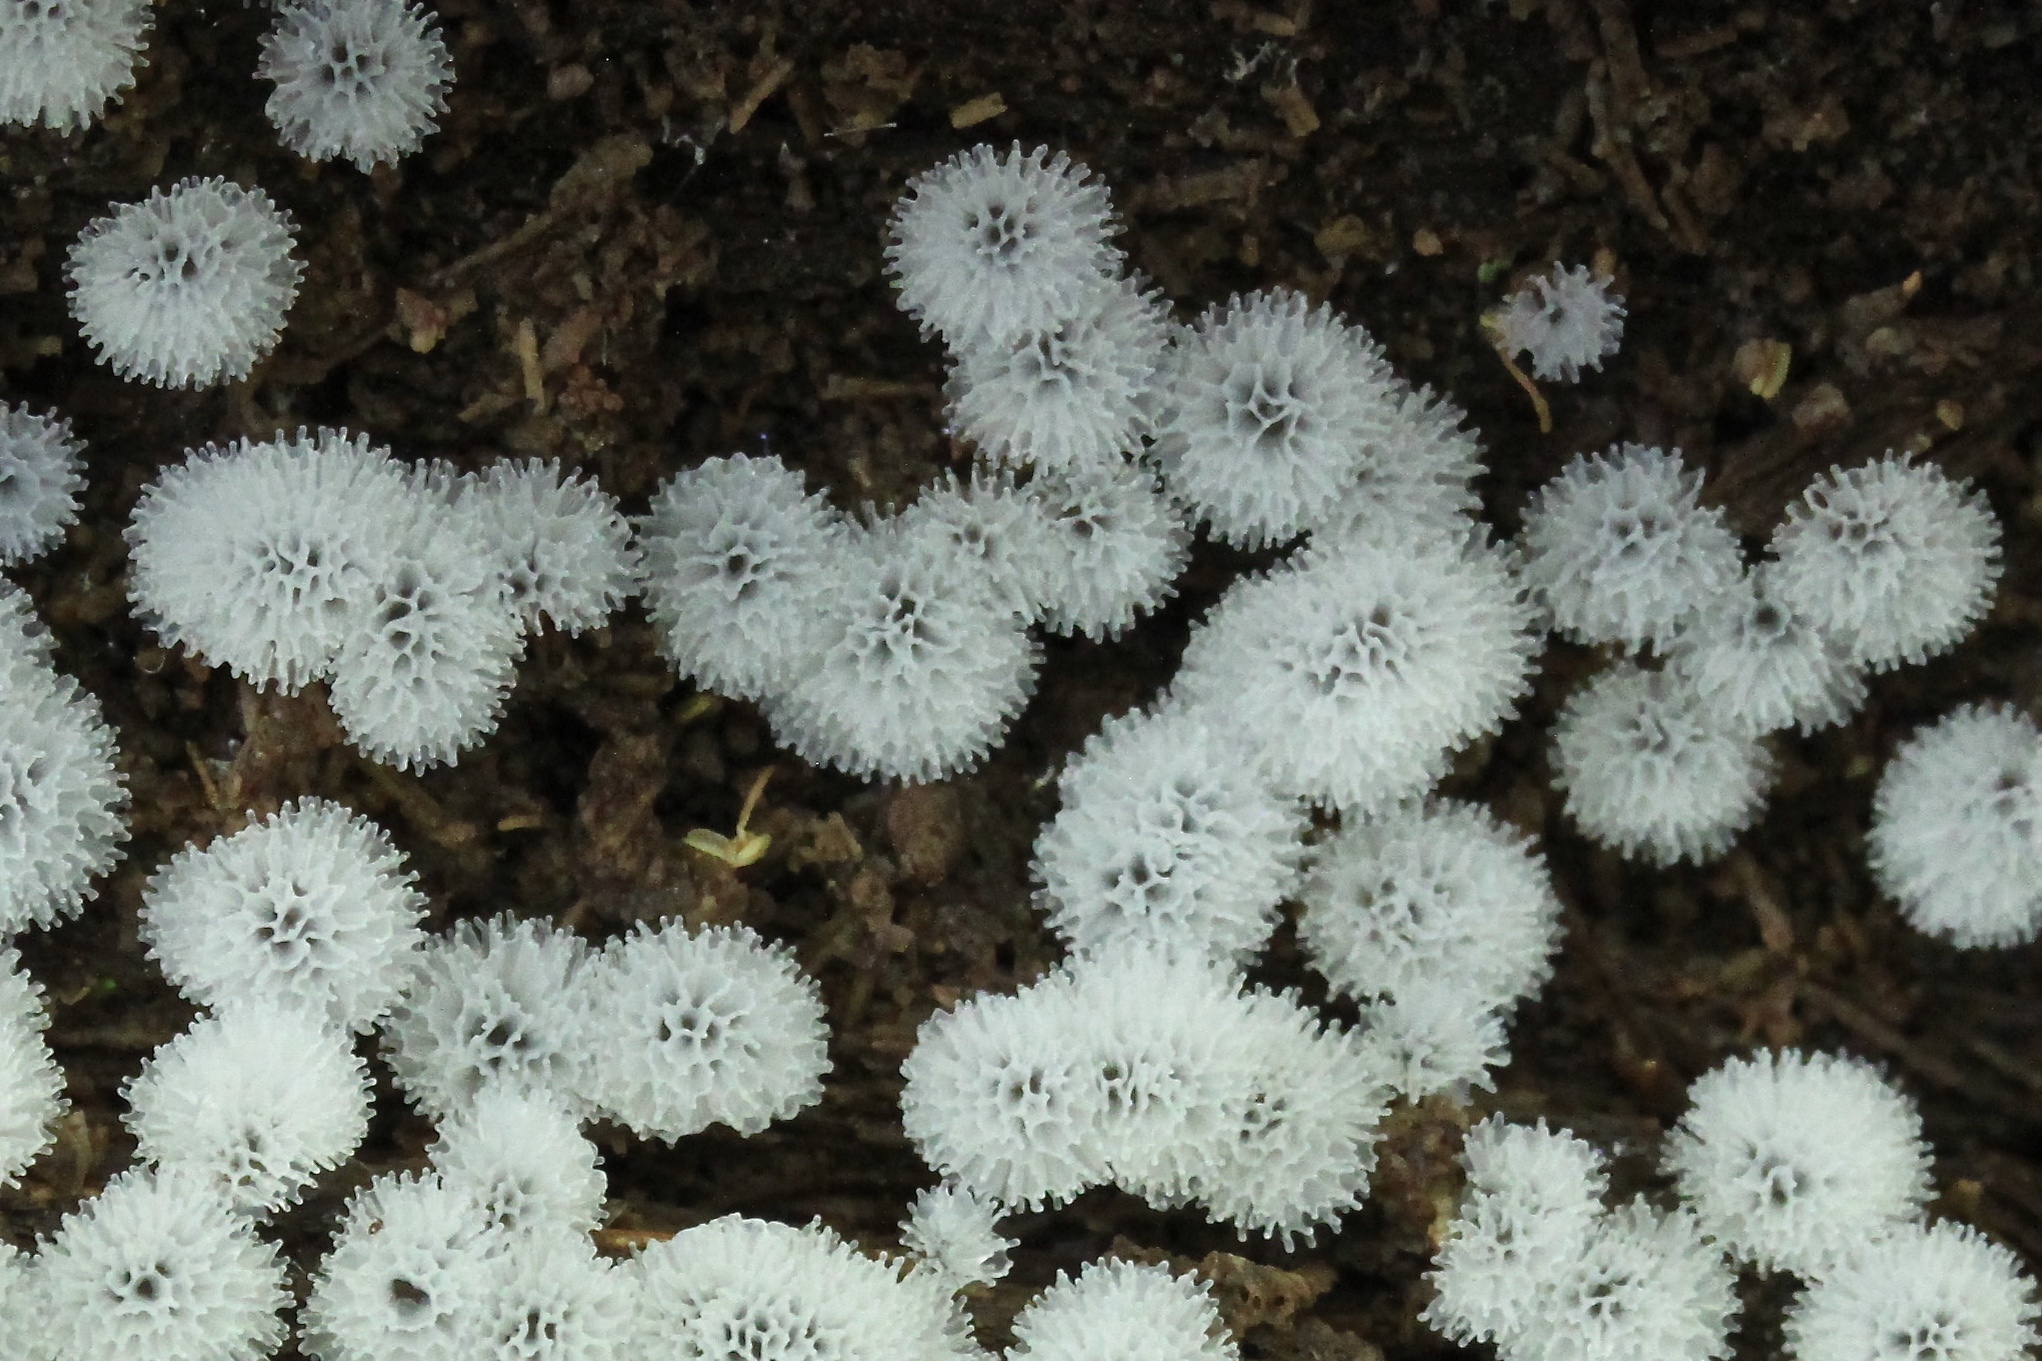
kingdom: Protozoa
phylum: Mycetozoa
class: Protosteliomycetes
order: Ceratiomyxales
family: Ceratiomyxaceae
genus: Ceratiomyxa
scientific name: Ceratiomyxa fruticulosa
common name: Honeycomb coral slime mold
